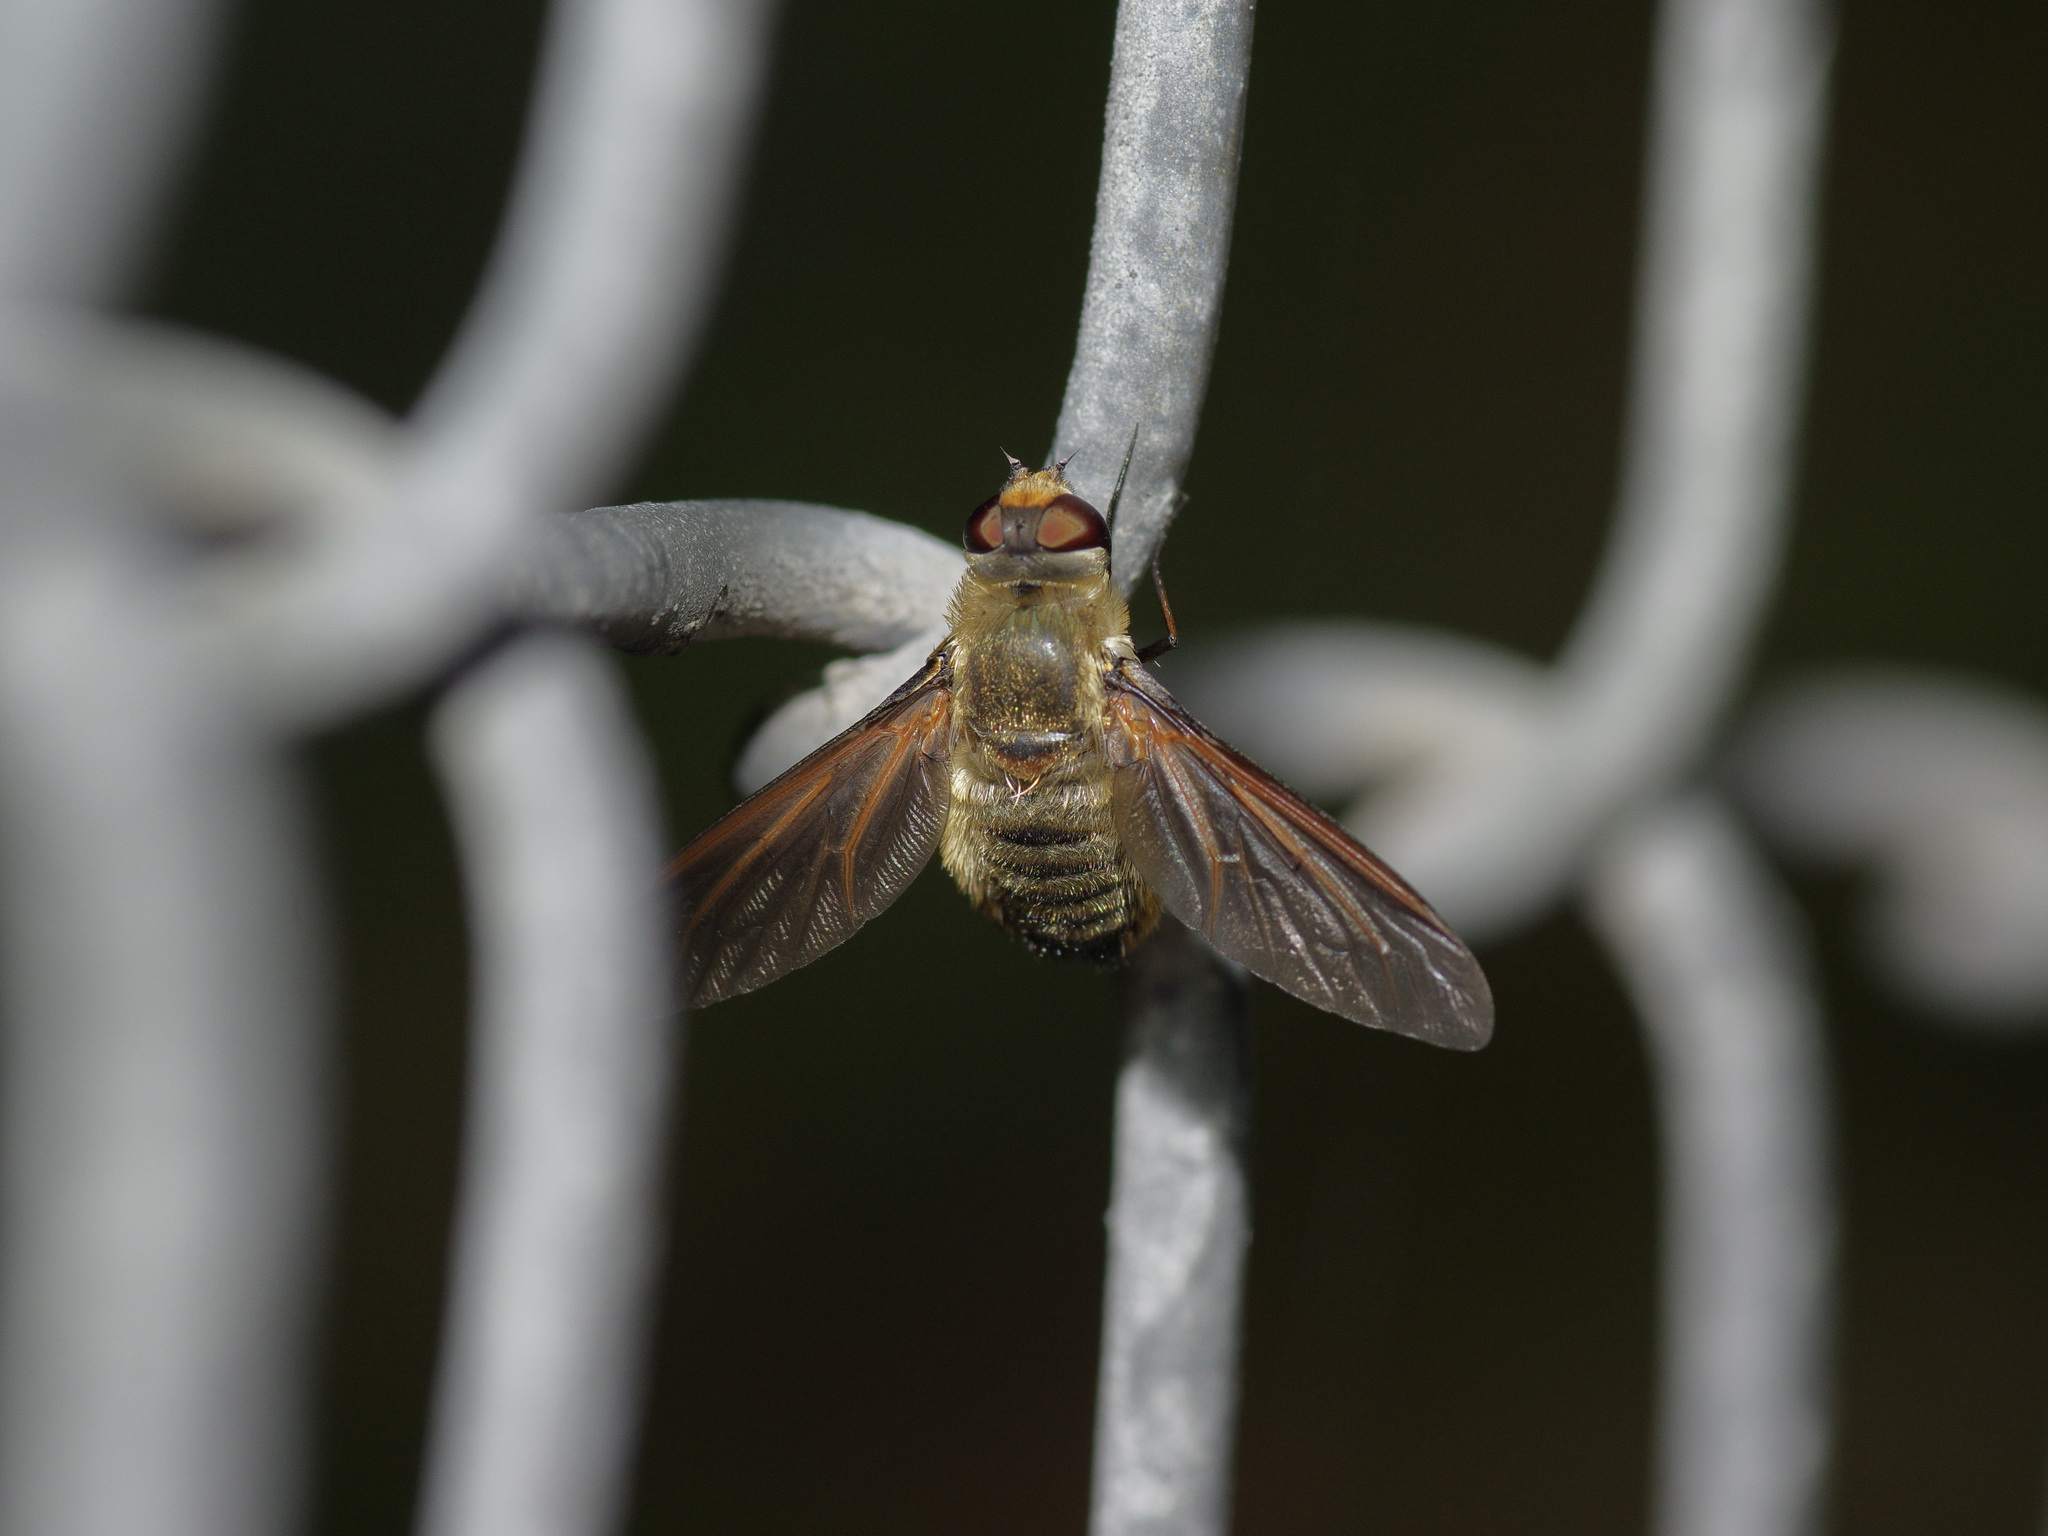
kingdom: Animalia
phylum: Arthropoda
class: Insecta
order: Diptera
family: Bombyliidae
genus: Poecilanthrax
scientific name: Poecilanthrax lucifer
